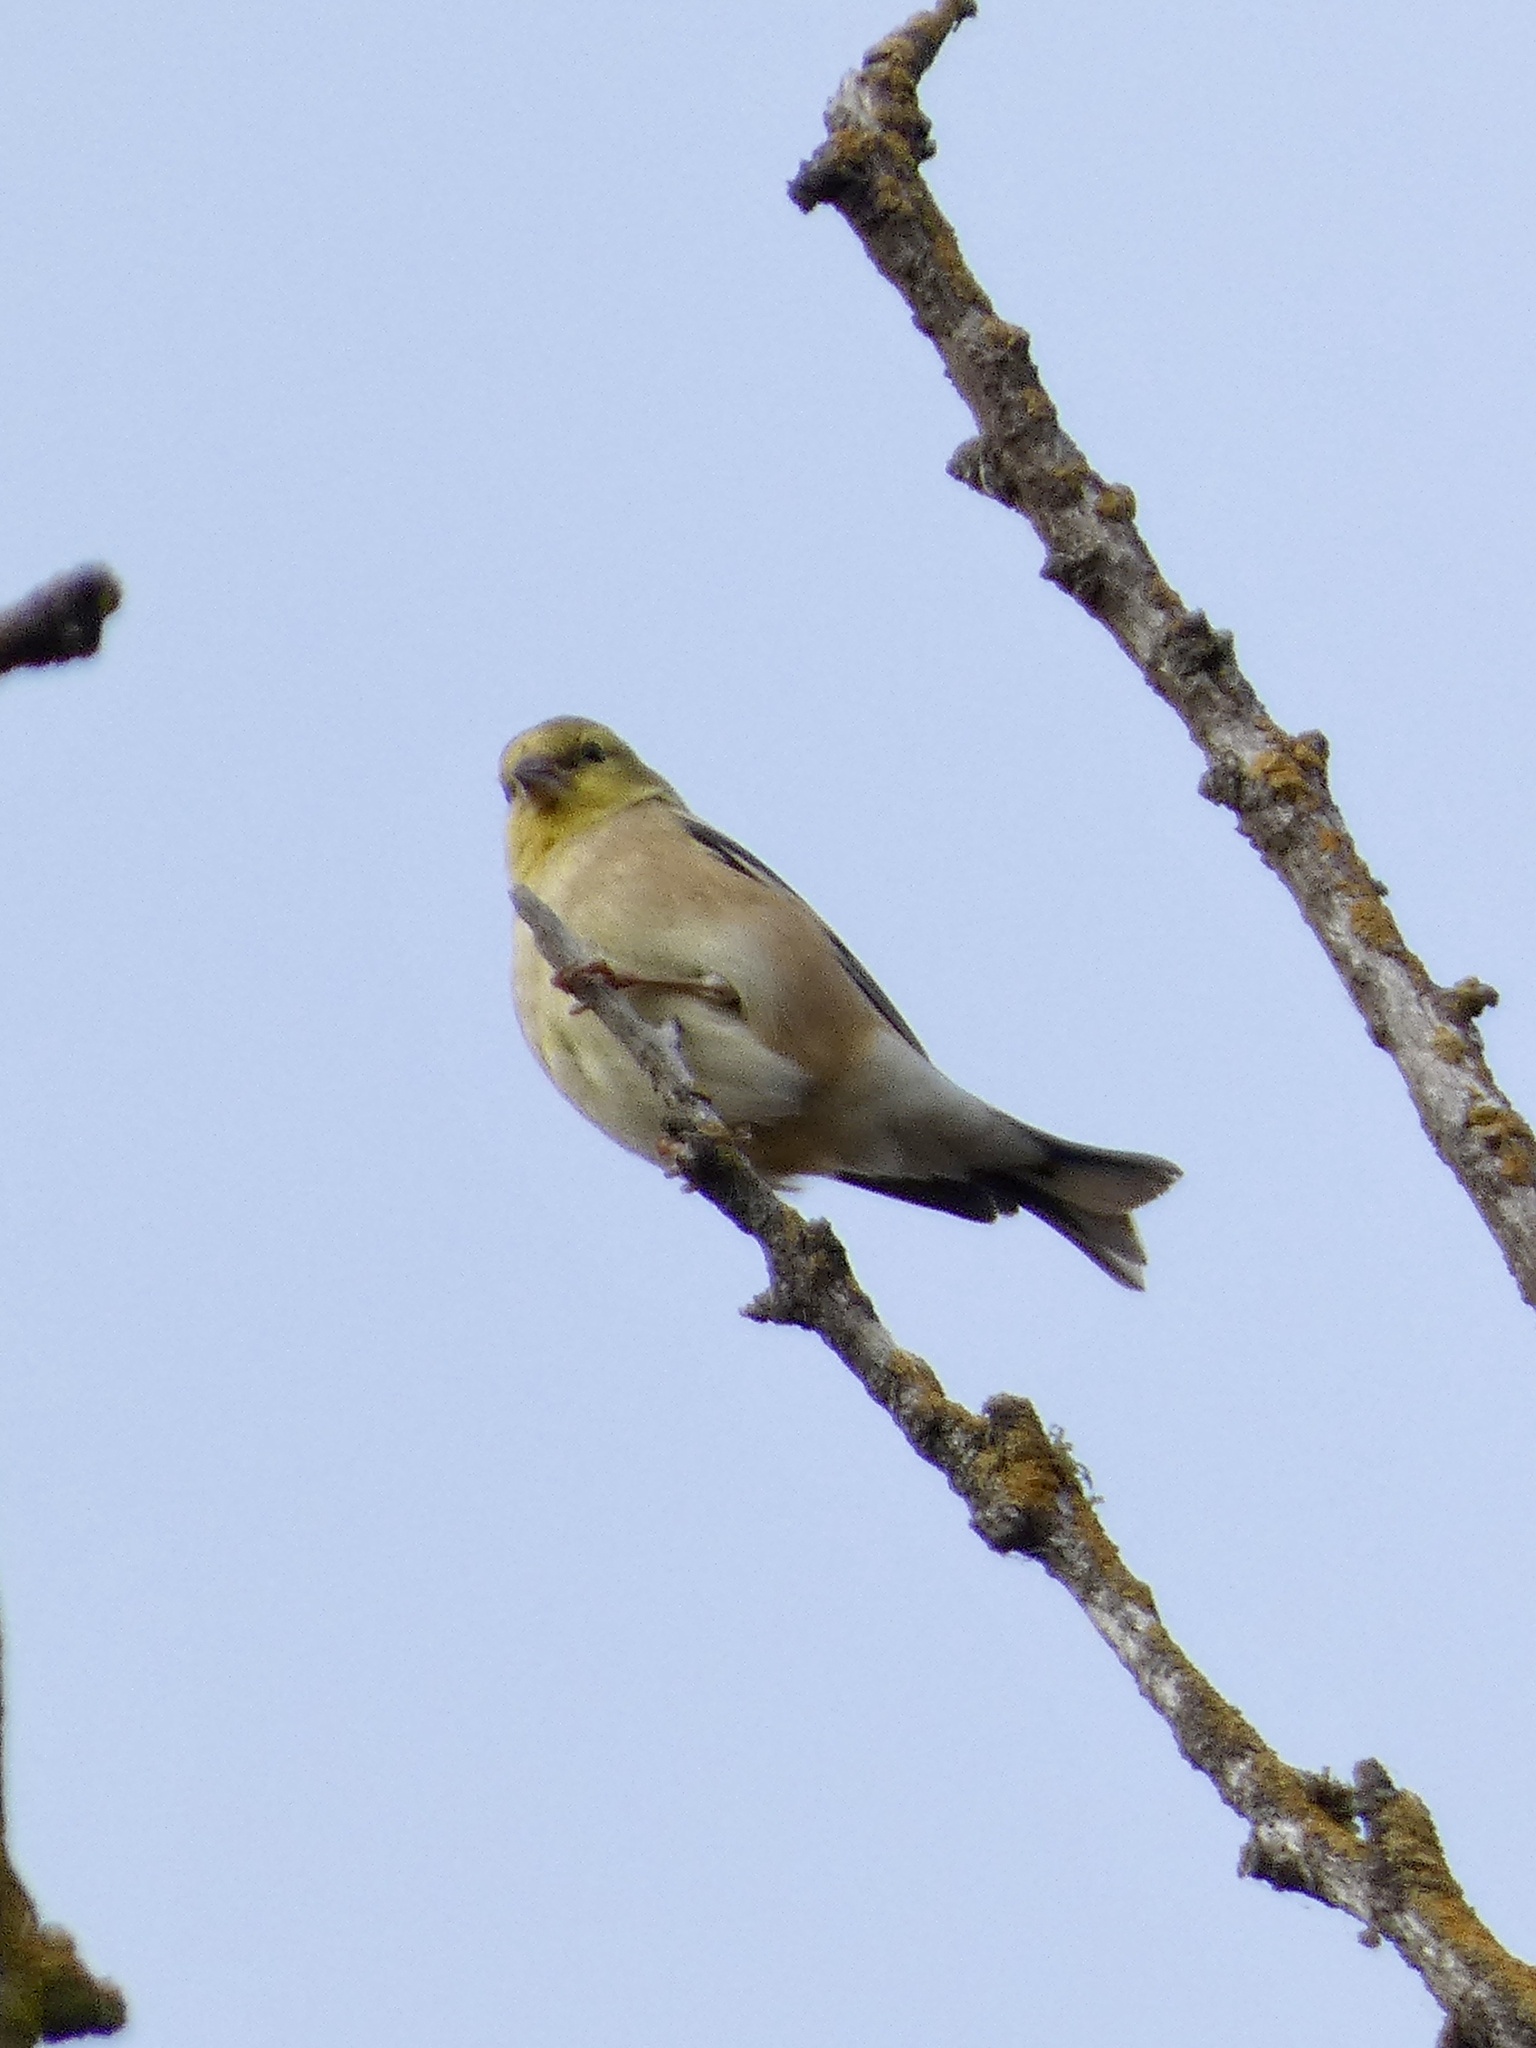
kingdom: Animalia
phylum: Chordata
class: Aves
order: Passeriformes
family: Fringillidae
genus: Spinus
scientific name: Spinus tristis
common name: American goldfinch
